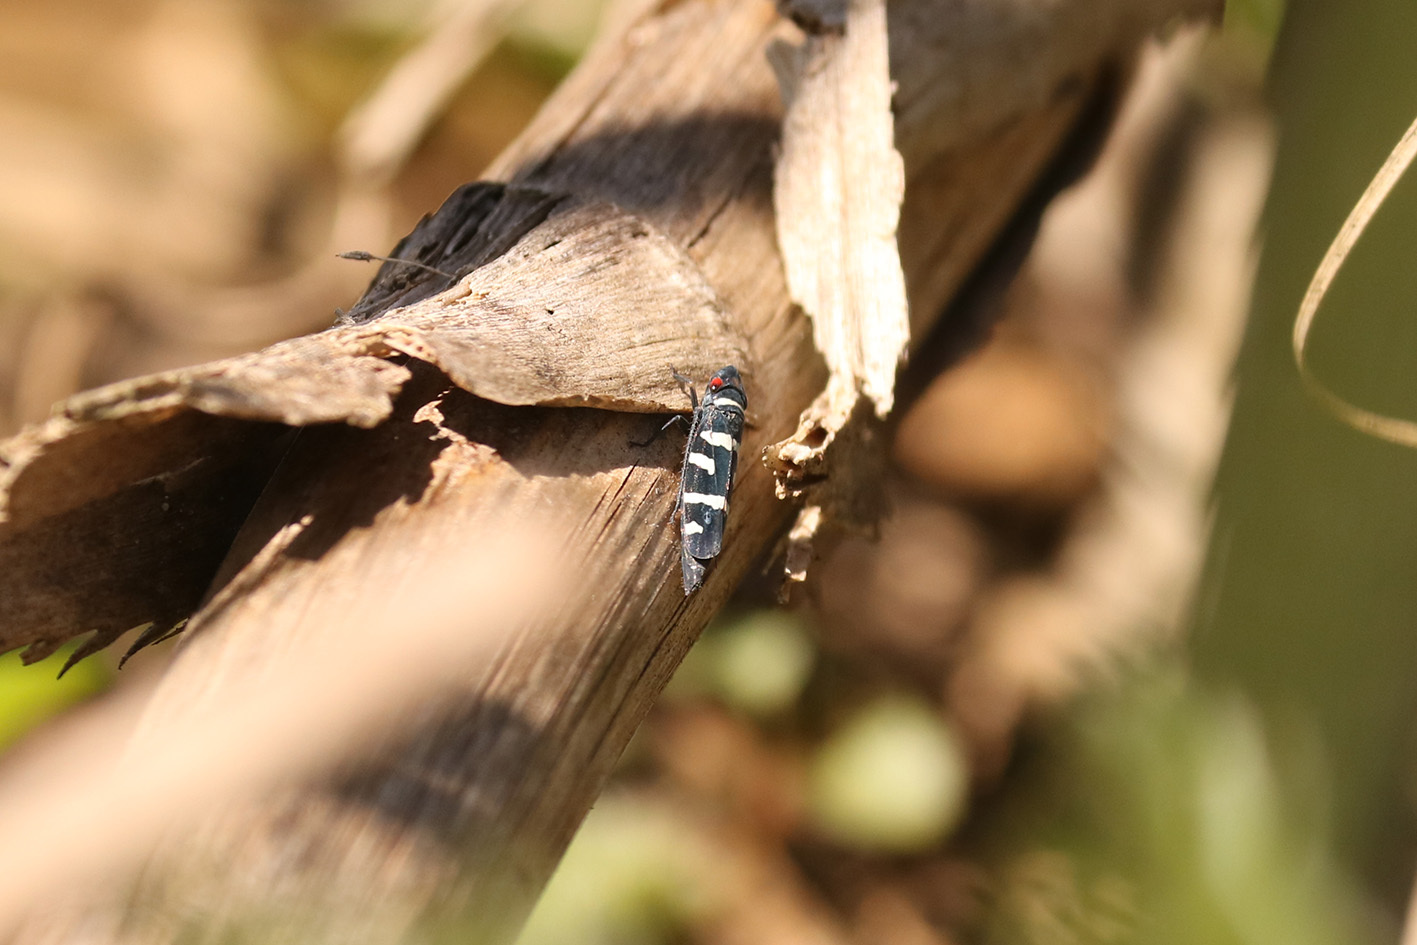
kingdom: Animalia
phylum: Arthropoda
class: Insecta
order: Hemiptera
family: Cicadellidae
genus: Balacha
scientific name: Balacha melanocephala
